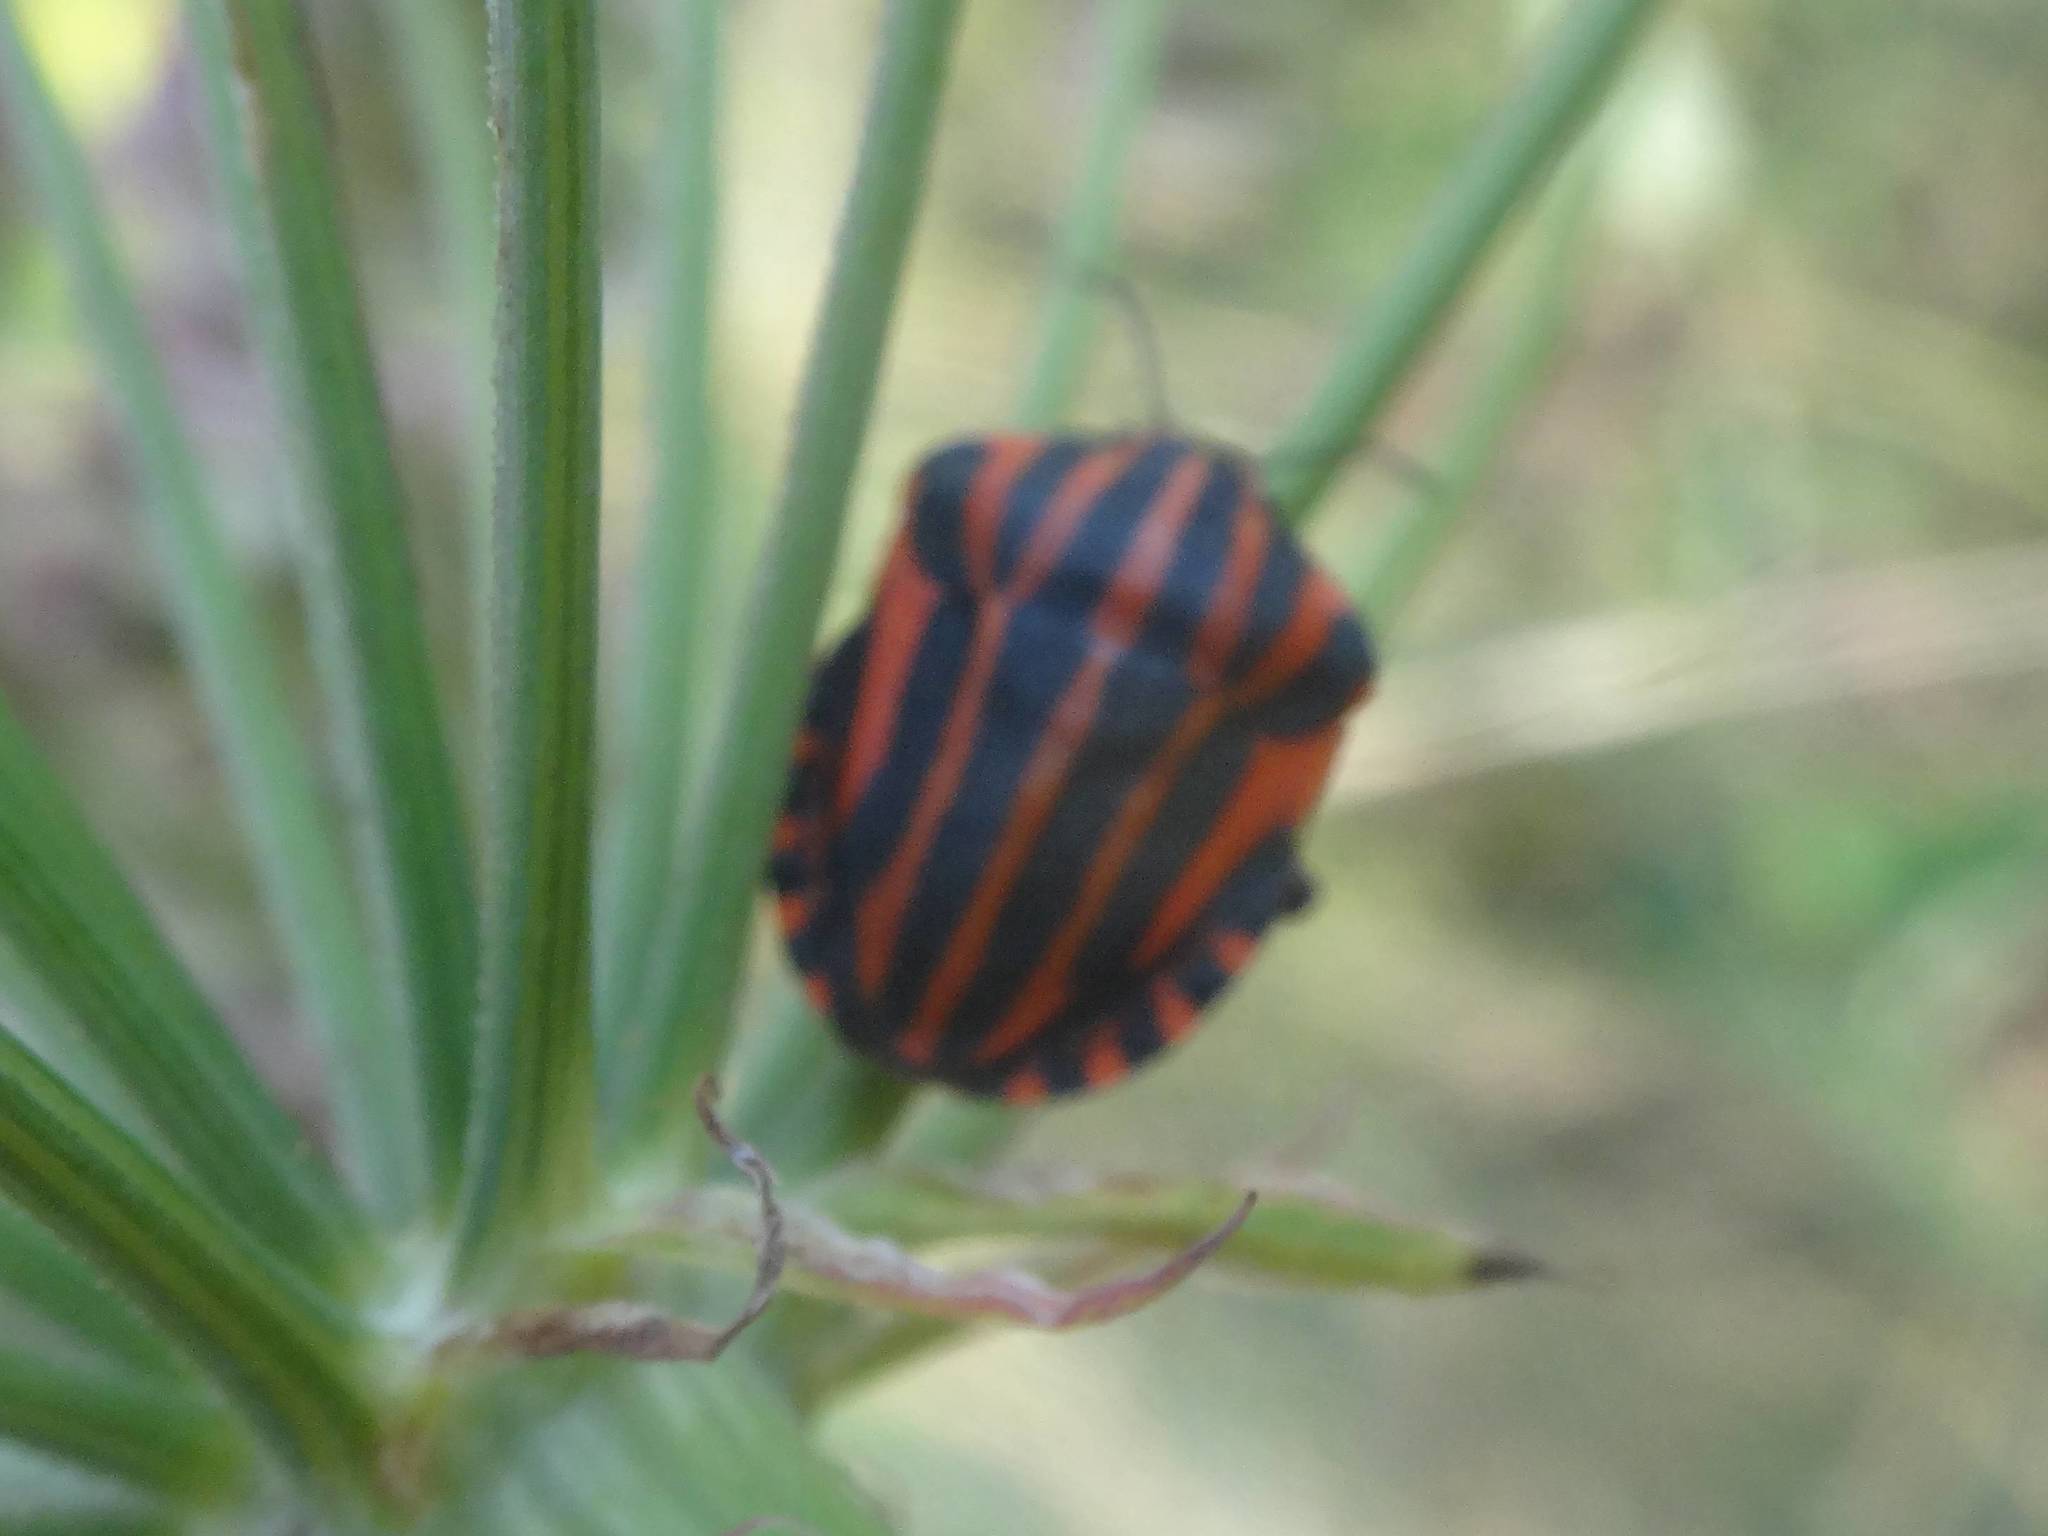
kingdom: Animalia
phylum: Arthropoda
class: Insecta
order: Hemiptera
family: Pentatomidae
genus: Graphosoma
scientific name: Graphosoma italicum
